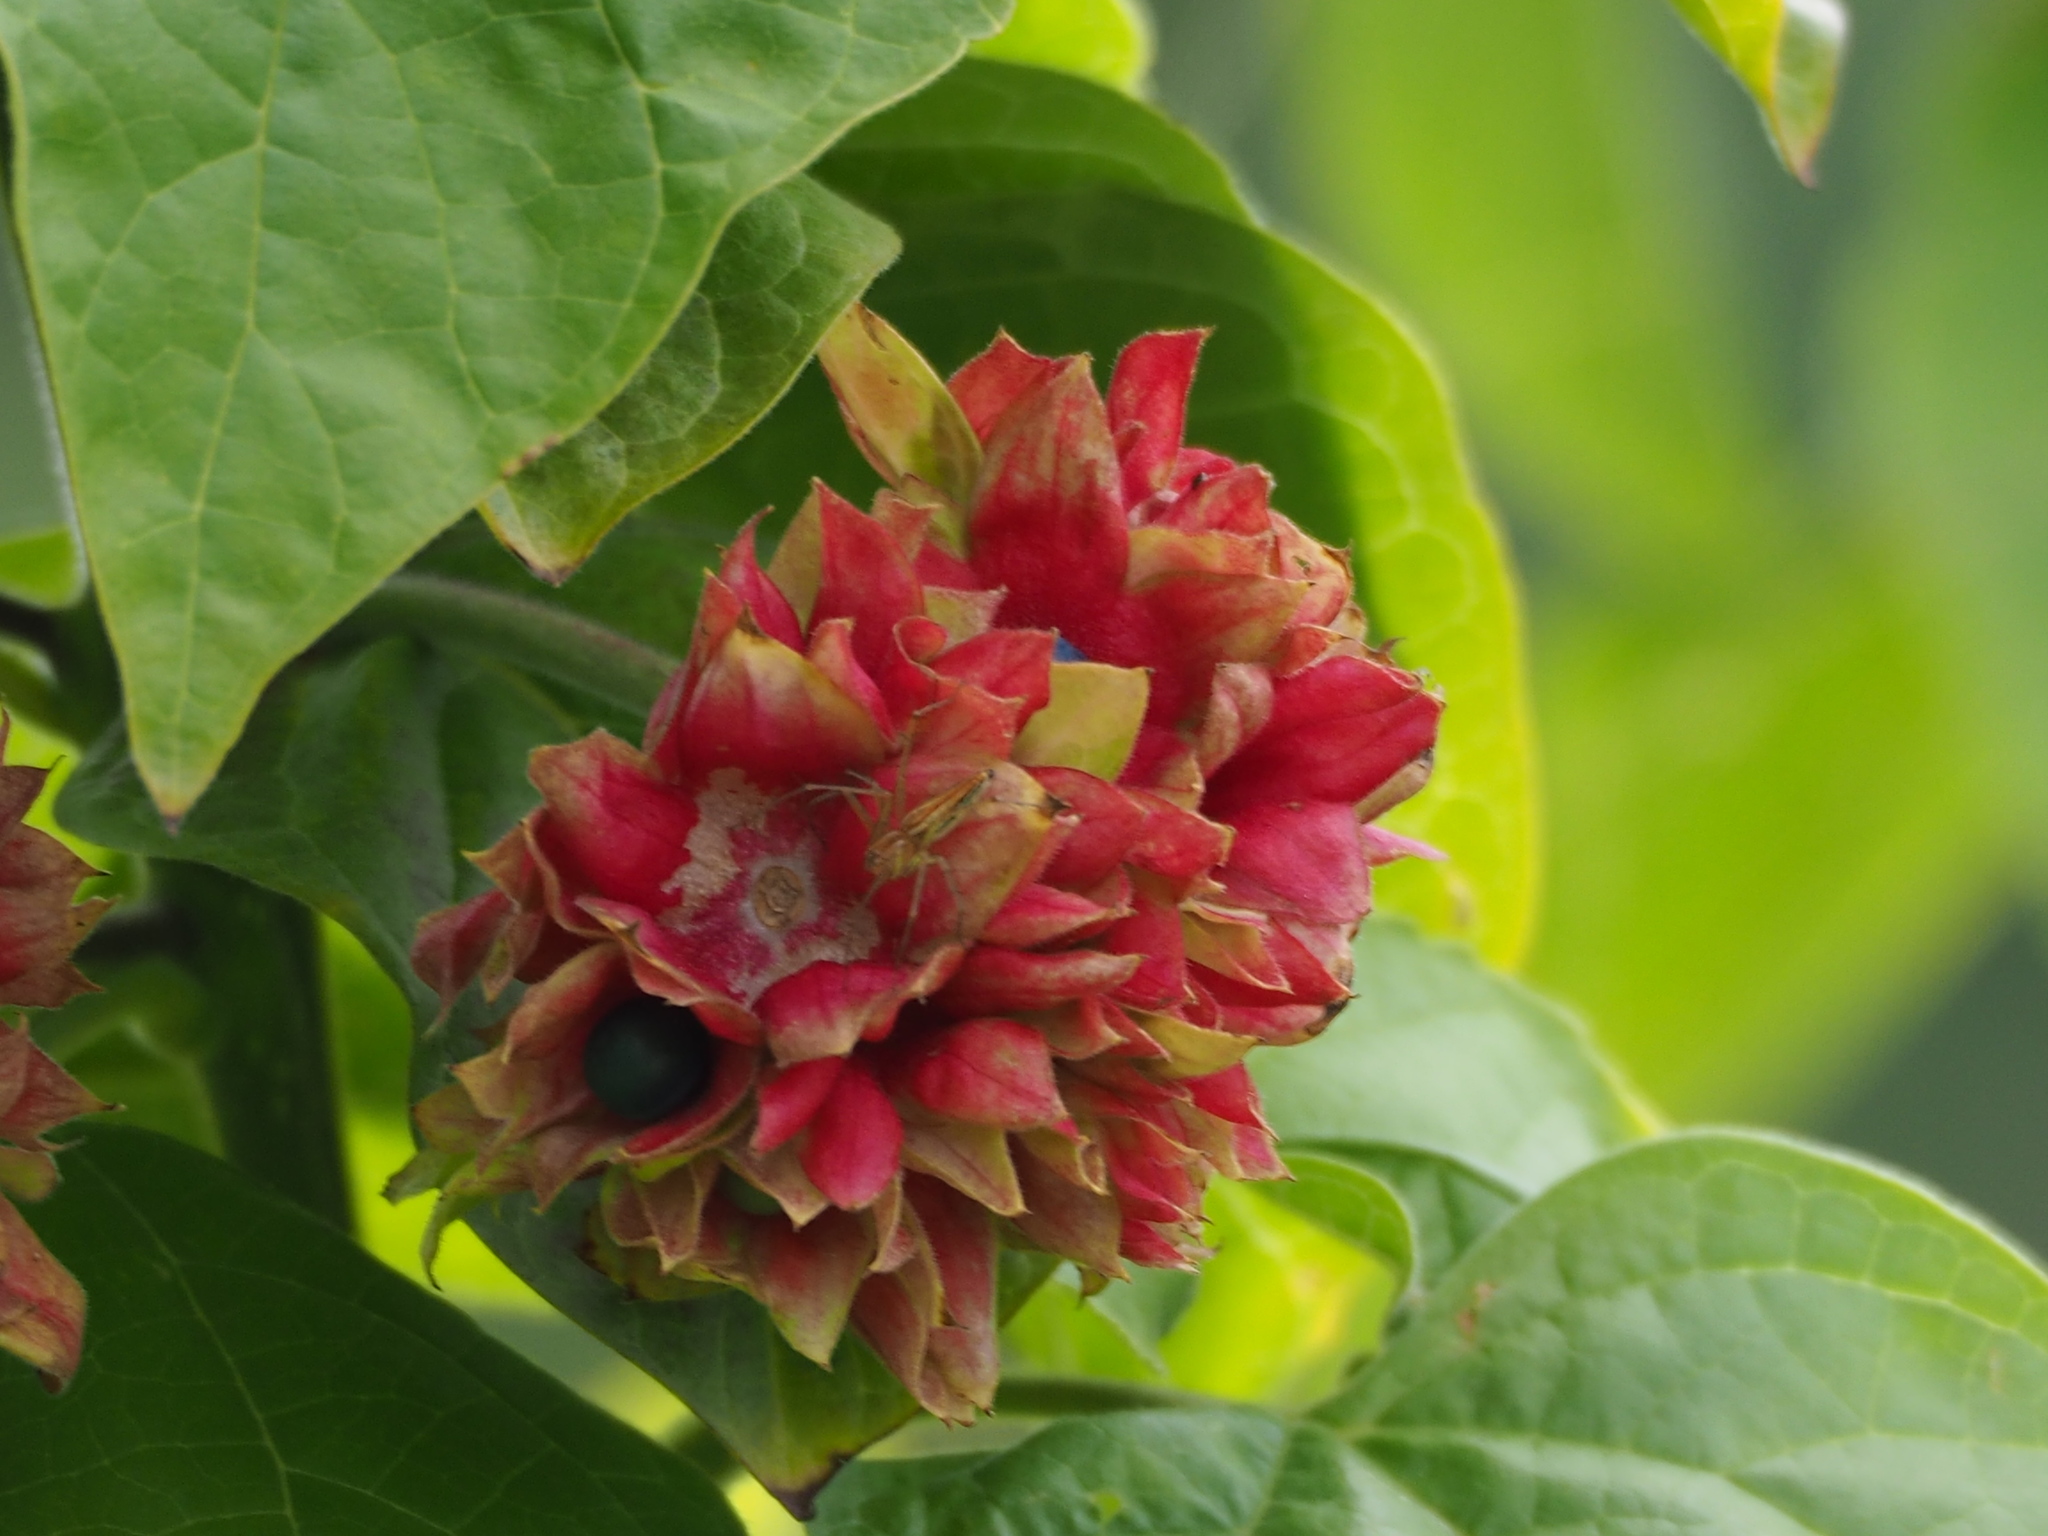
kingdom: Plantae
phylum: Tracheophyta
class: Magnoliopsida
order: Lamiales
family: Lamiaceae
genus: Clerodendrum
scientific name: Clerodendrum canescens
